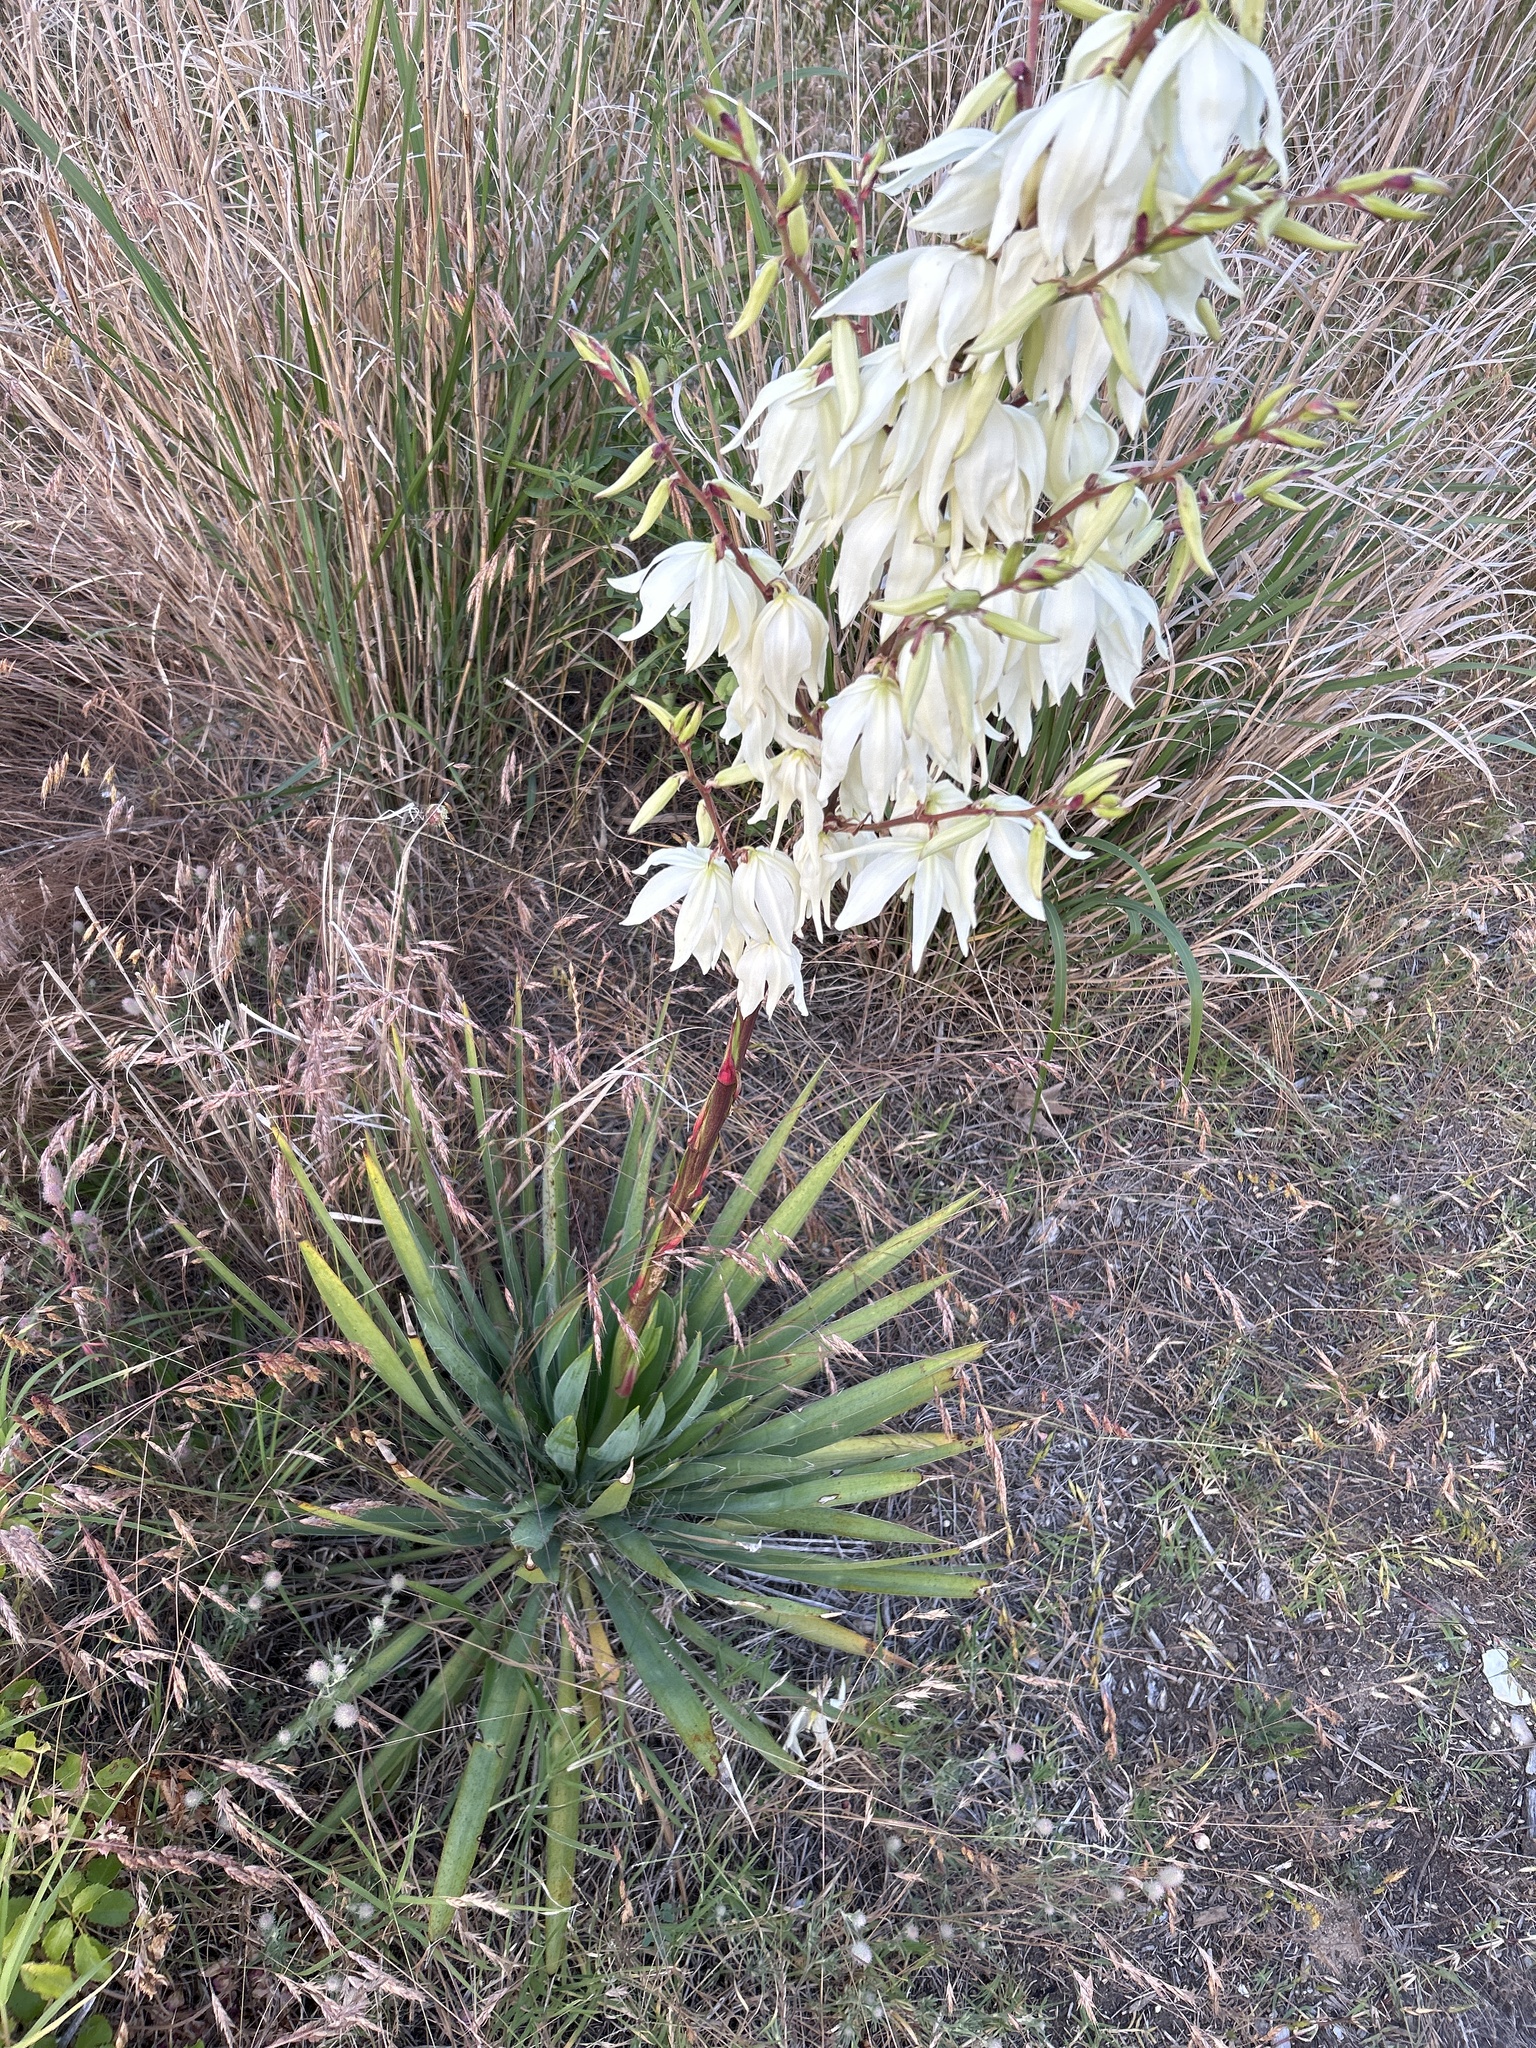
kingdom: Plantae
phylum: Tracheophyta
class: Liliopsida
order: Asparagales
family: Asparagaceae
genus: Yucca
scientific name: Yucca filamentosa
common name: Adam's-needle
